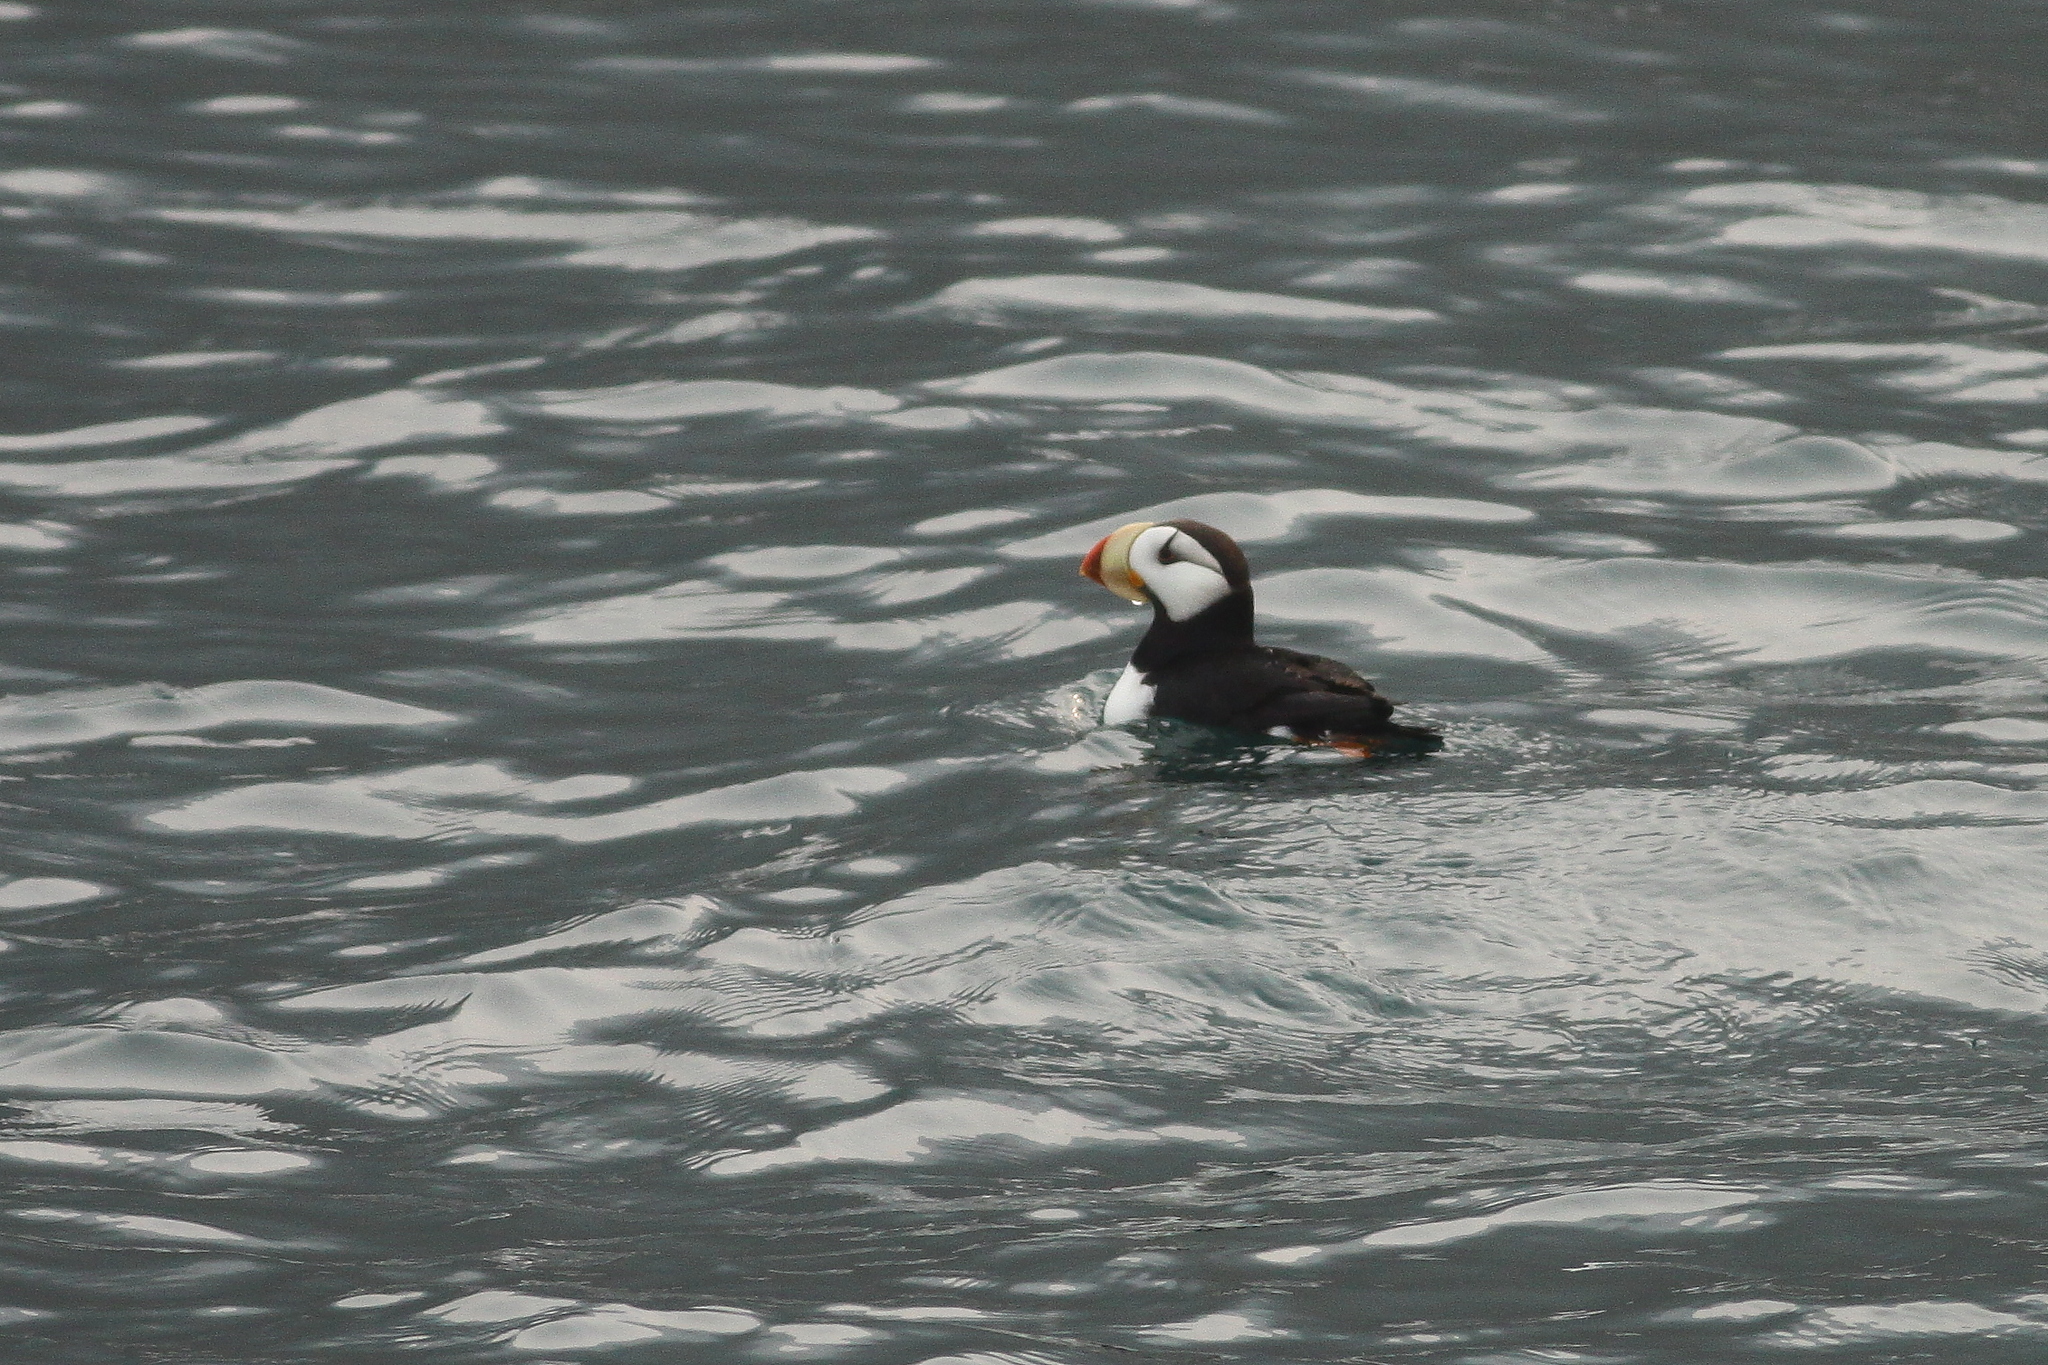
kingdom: Animalia
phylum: Chordata
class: Aves
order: Charadriiformes
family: Alcidae
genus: Fratercula
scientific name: Fratercula corniculata
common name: Horned puffin
